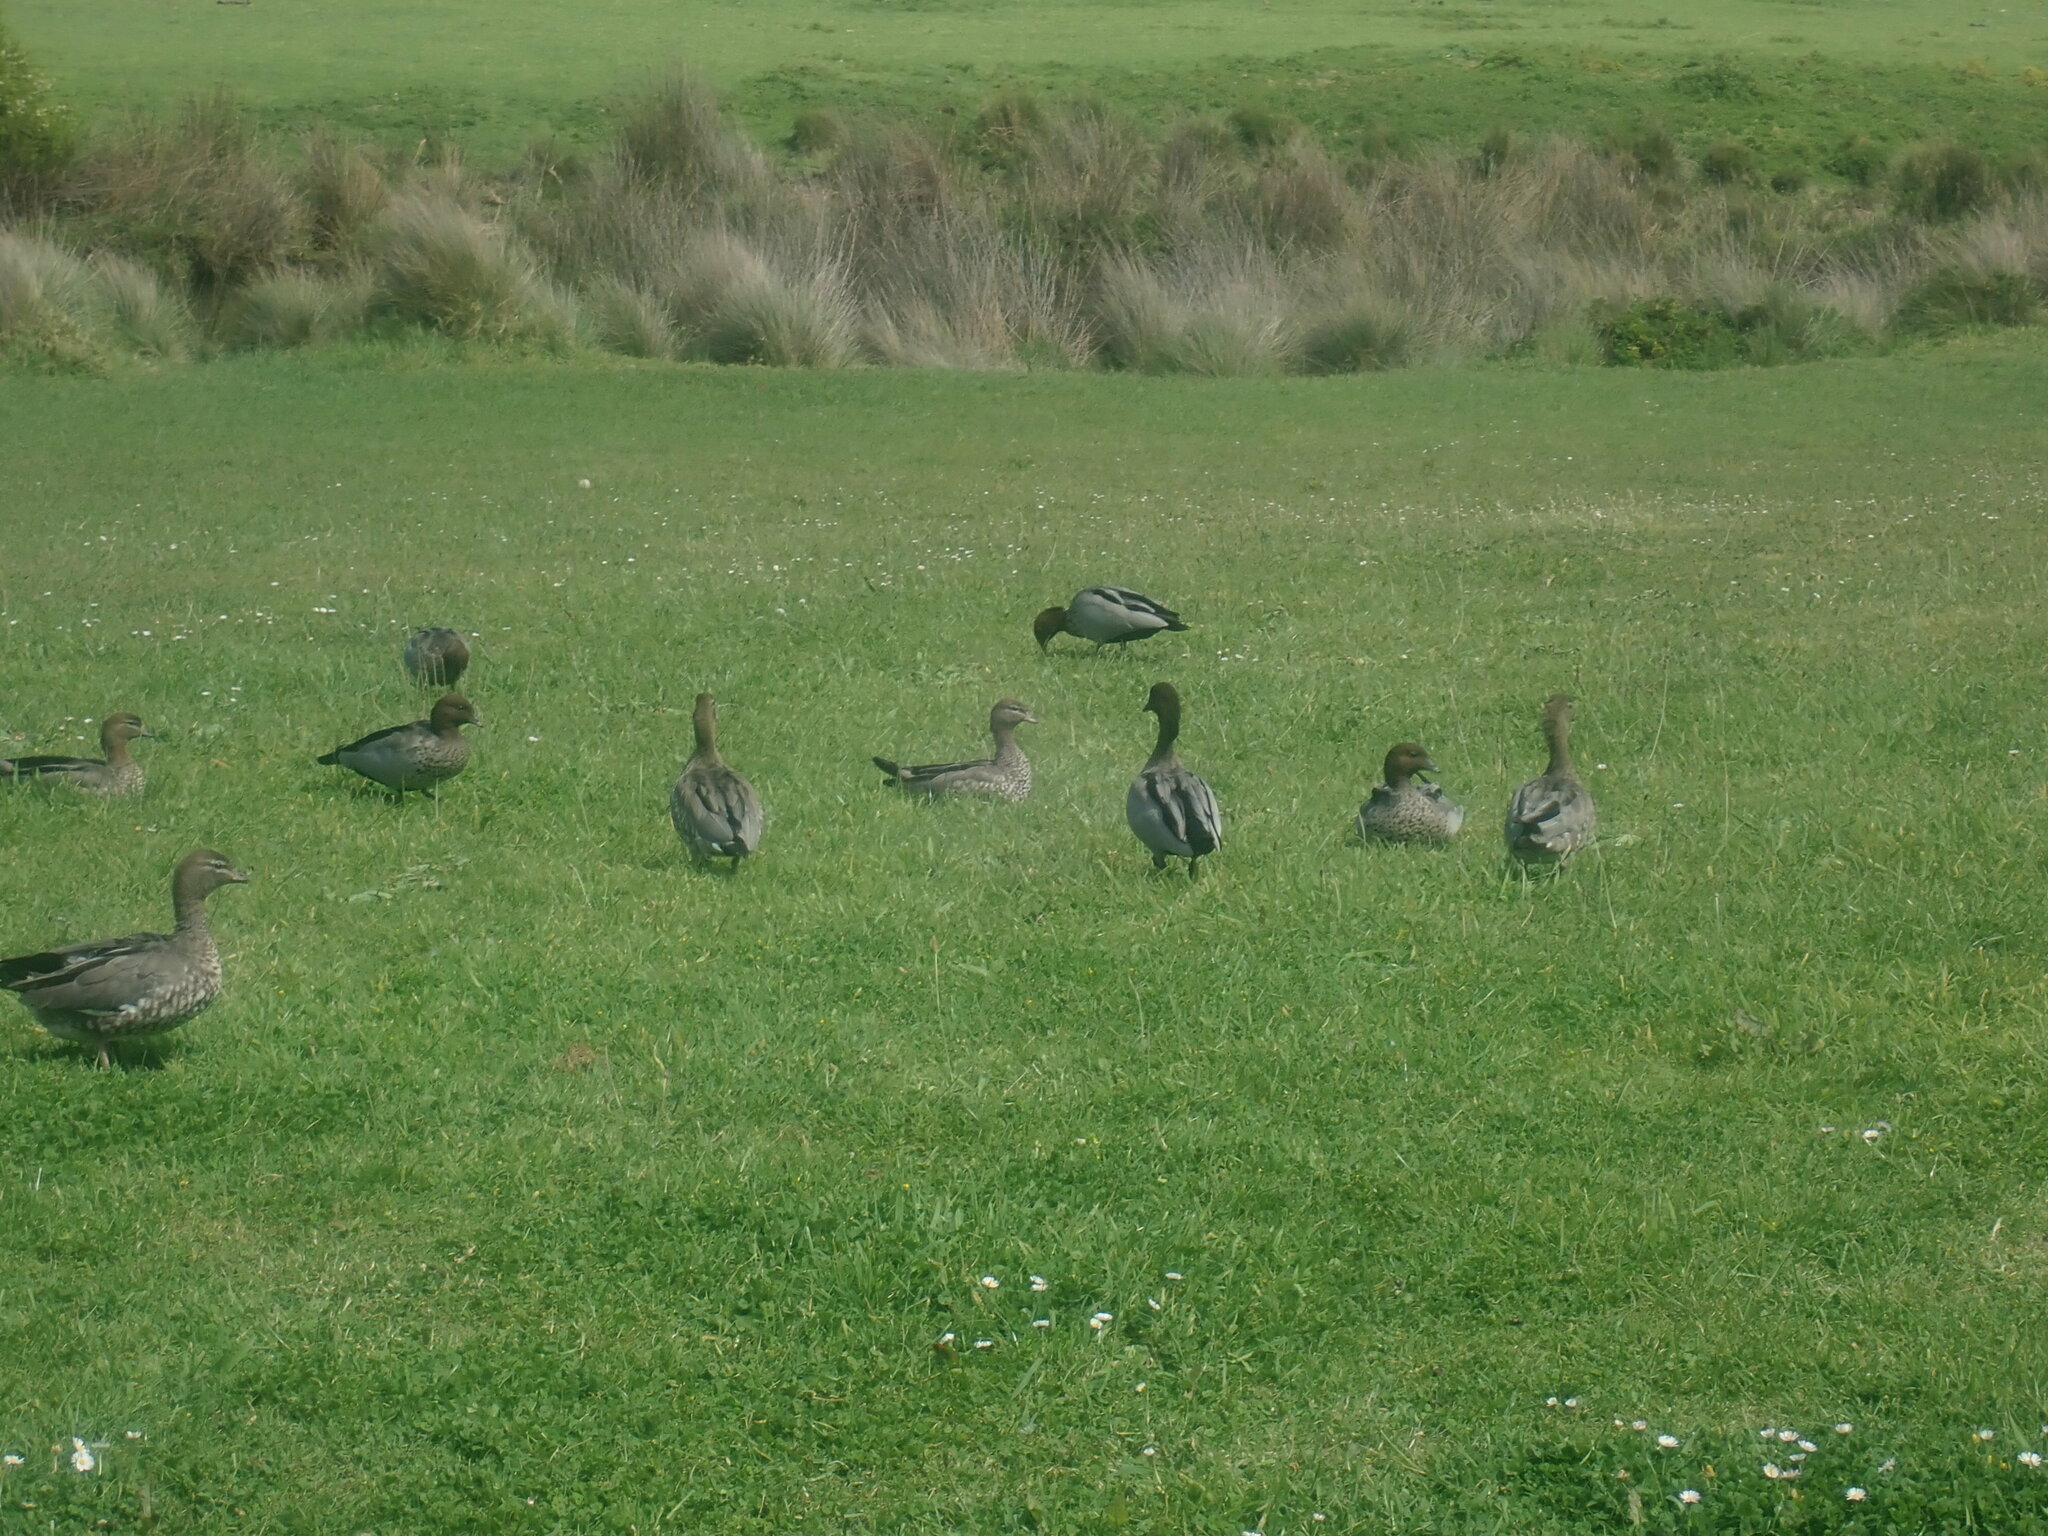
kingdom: Animalia
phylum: Chordata
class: Aves
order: Anseriformes
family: Anatidae
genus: Chenonetta
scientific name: Chenonetta jubata
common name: Maned duck
